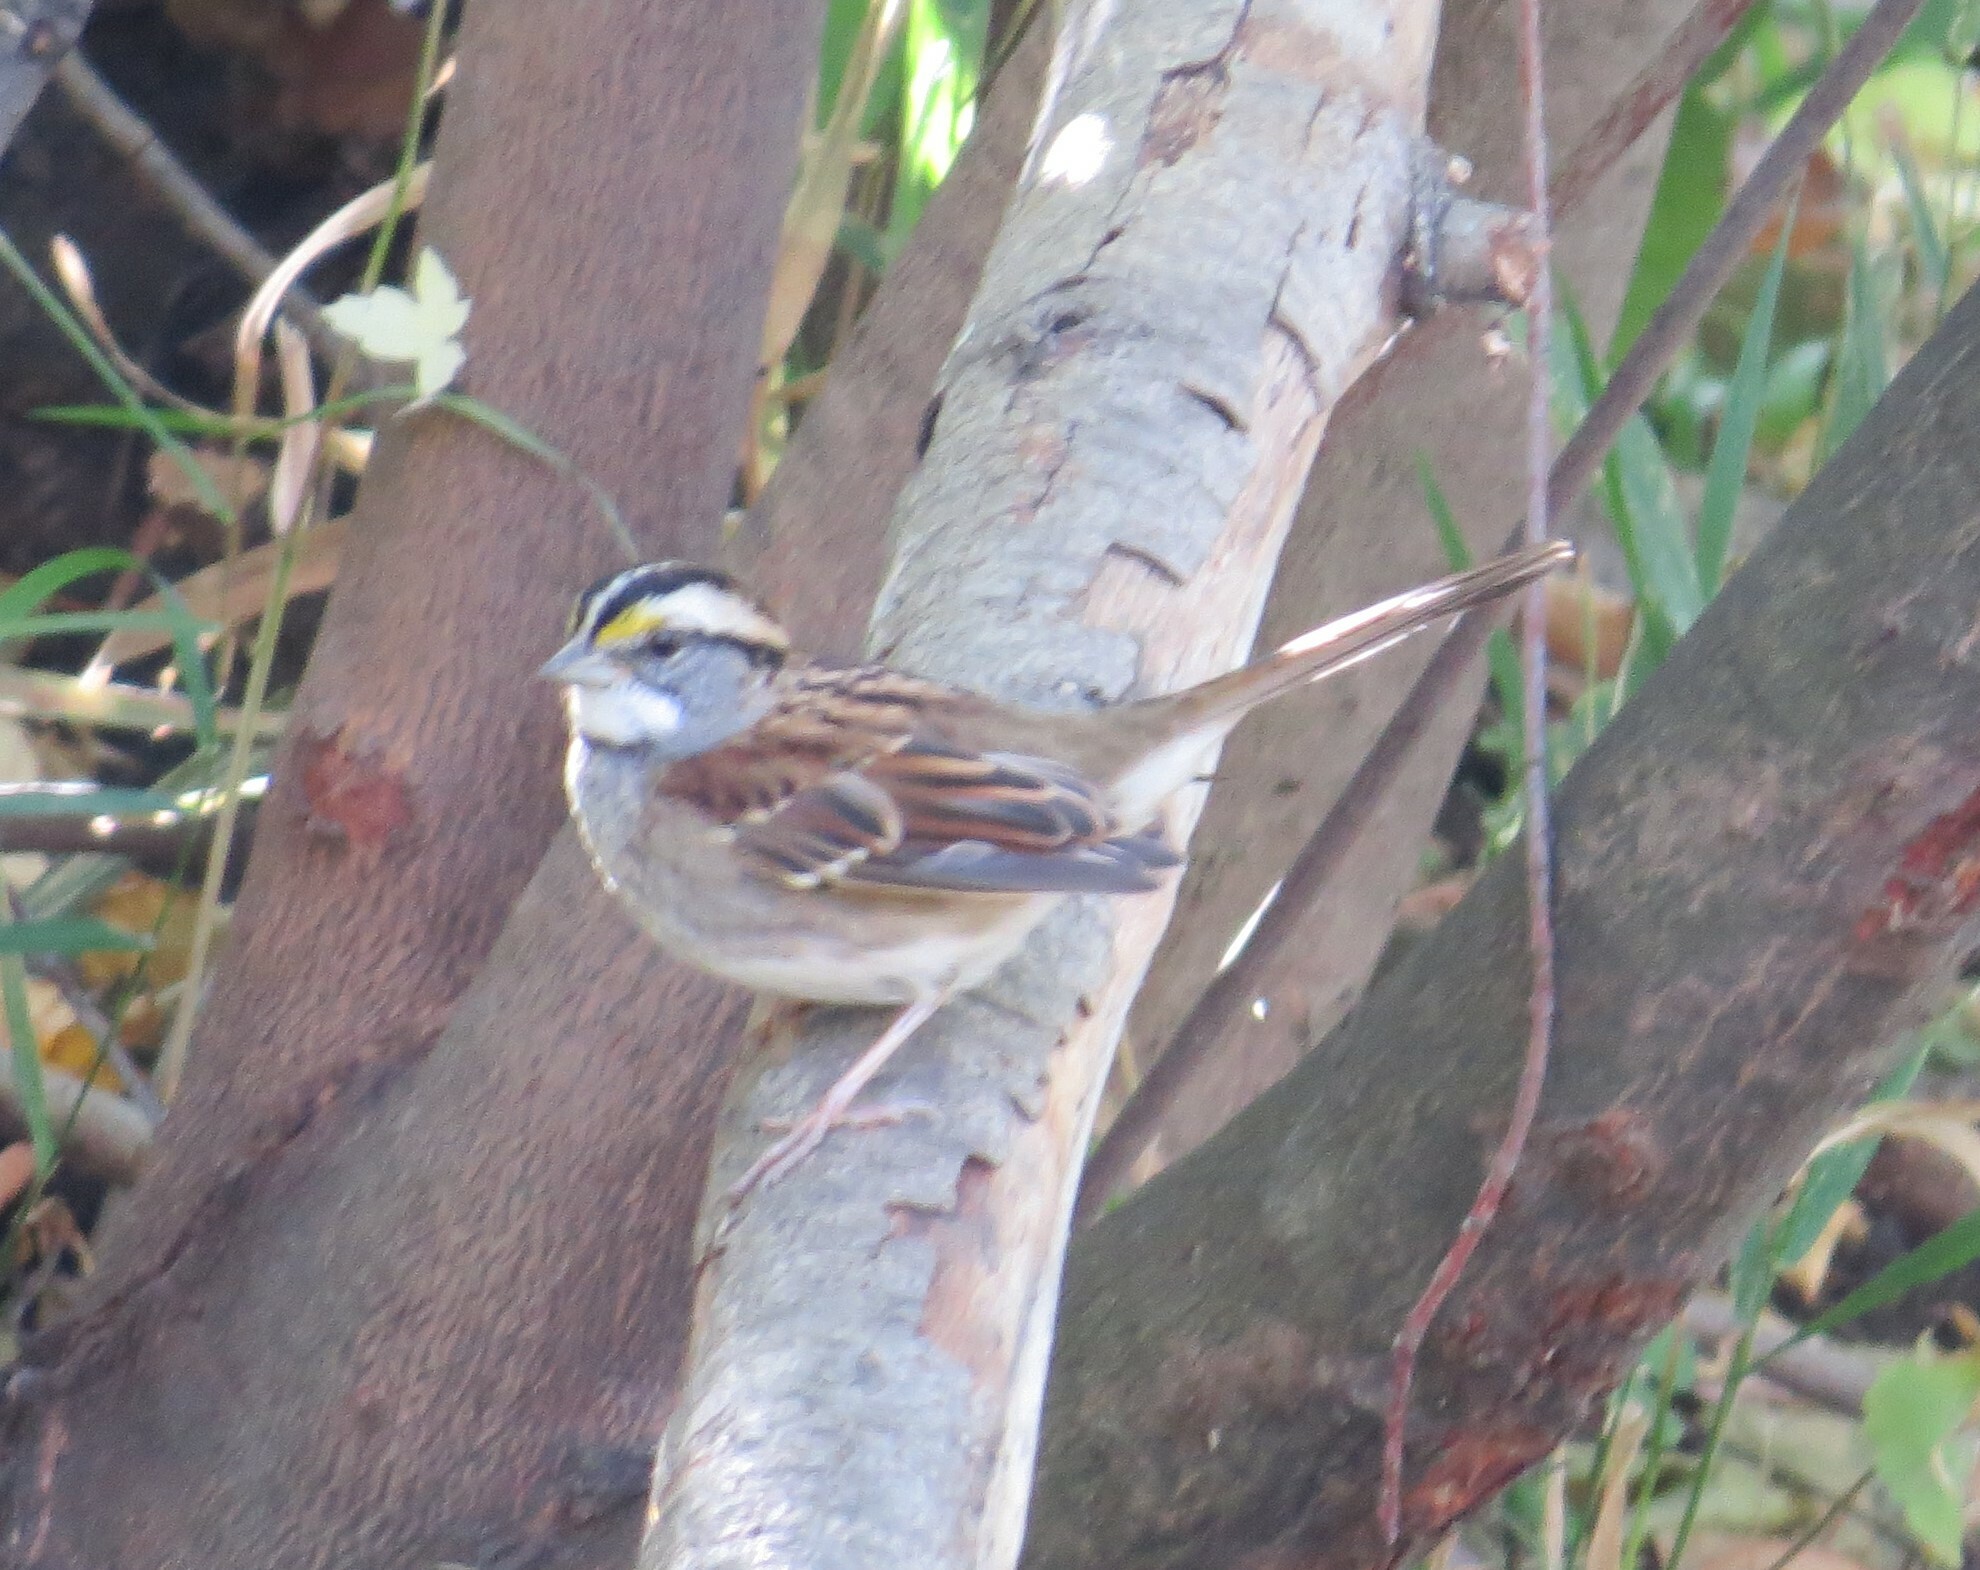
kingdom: Animalia
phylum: Chordata
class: Aves
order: Passeriformes
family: Passerellidae
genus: Zonotrichia
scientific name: Zonotrichia albicollis
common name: White-throated sparrow
